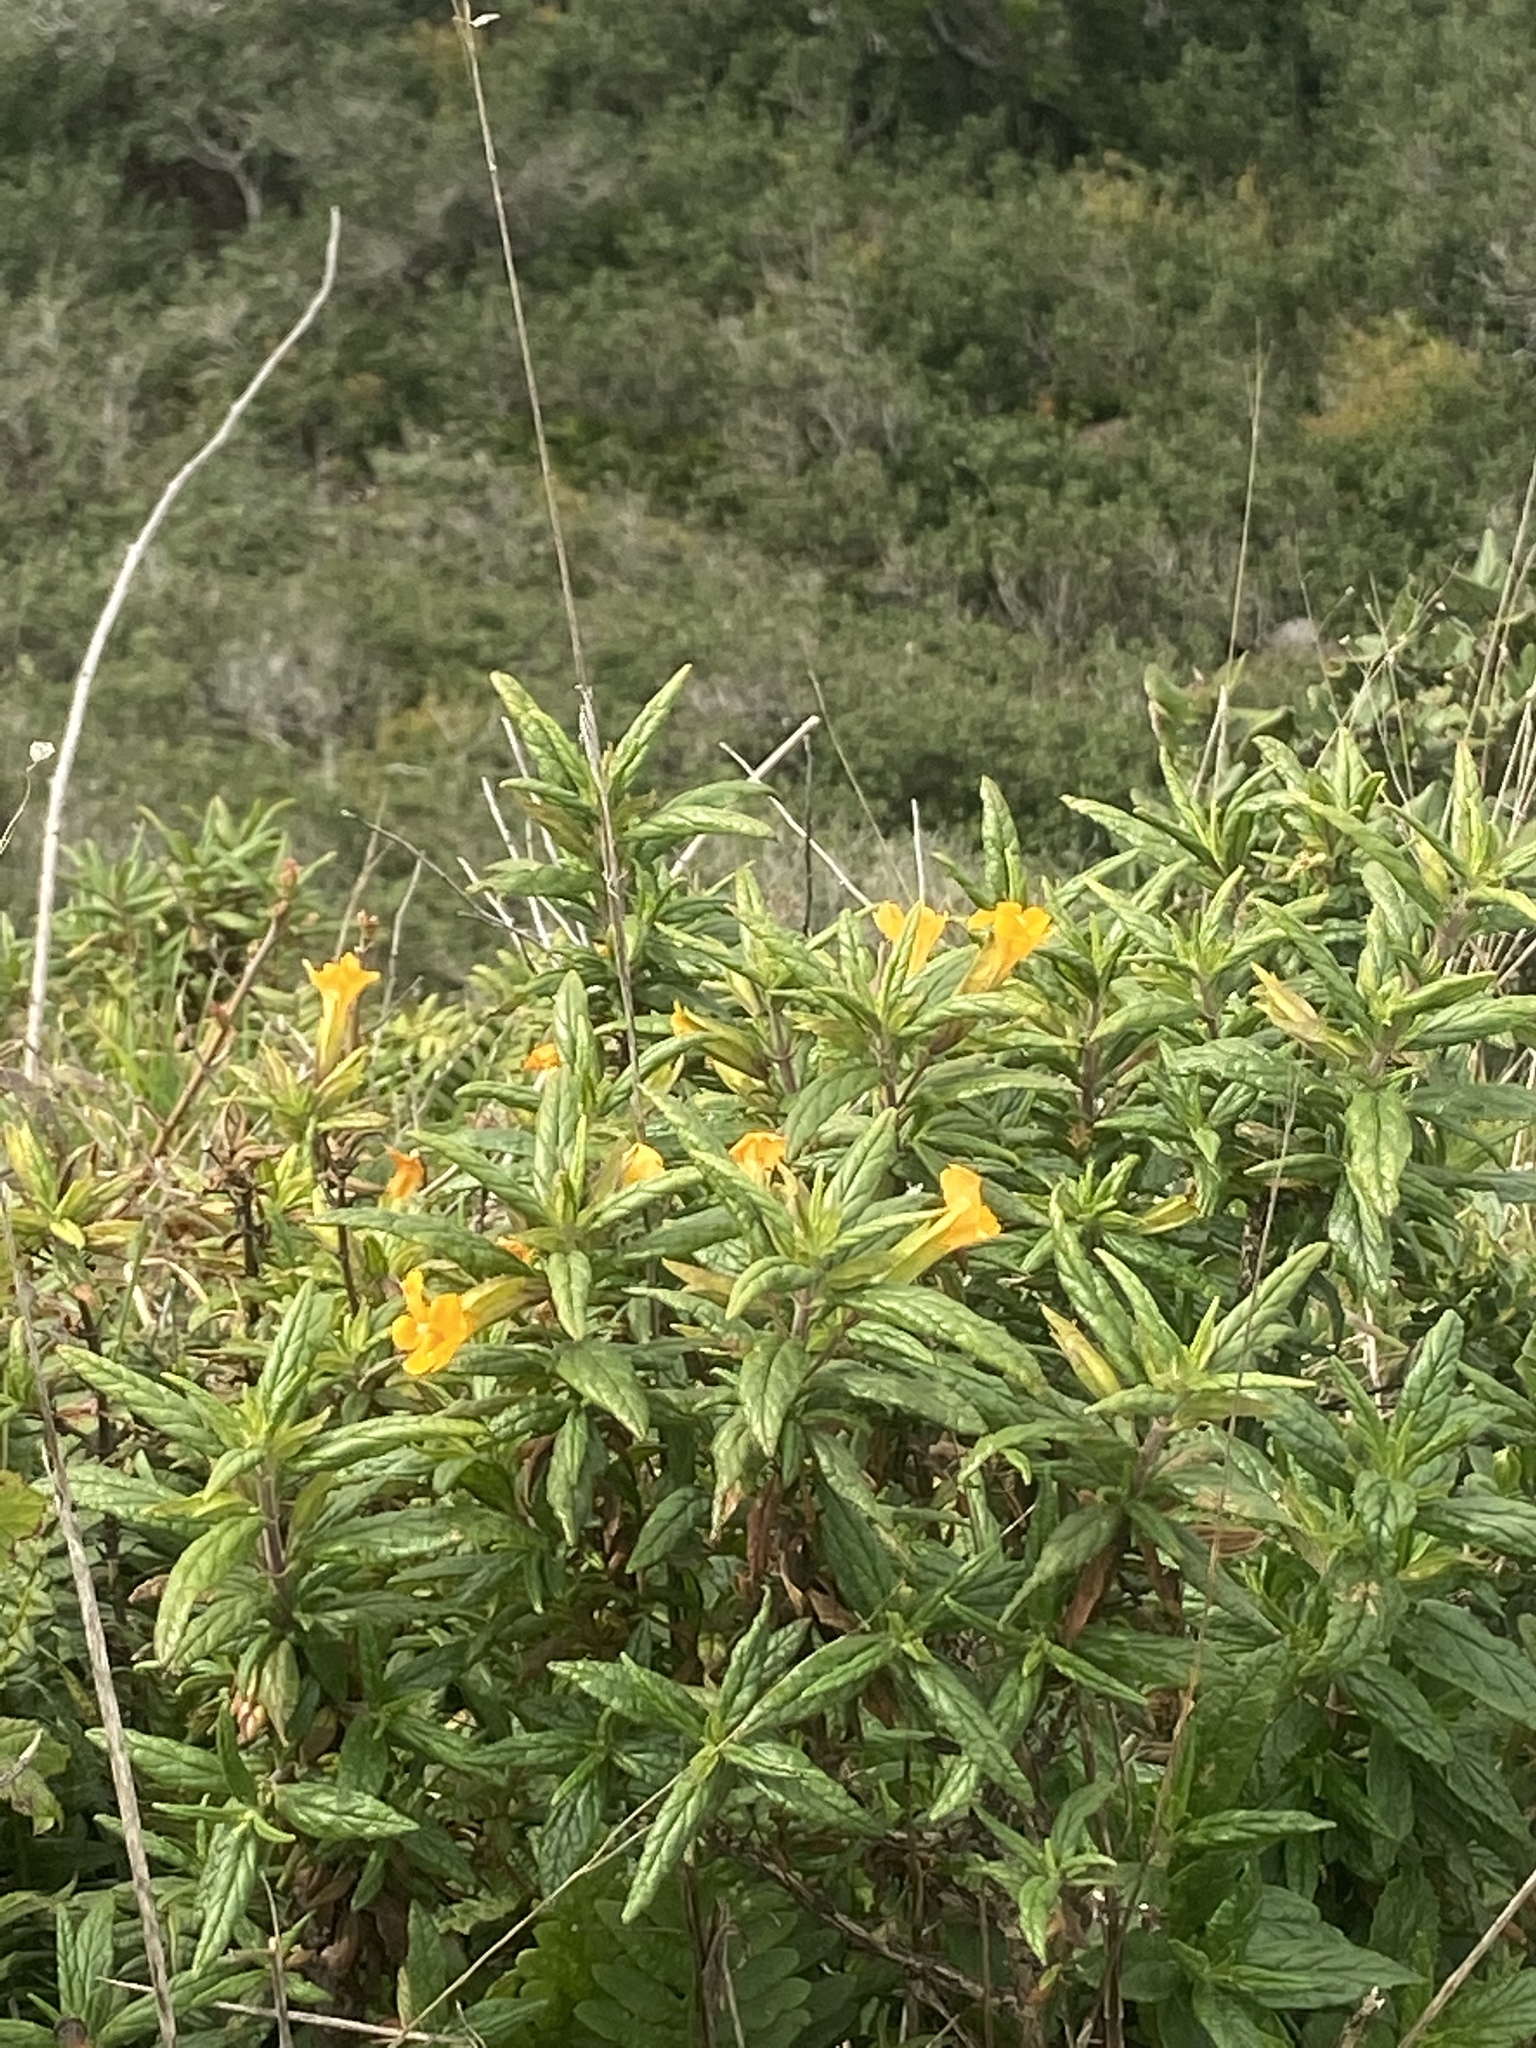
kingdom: Plantae
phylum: Tracheophyta
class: Magnoliopsida
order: Lamiales
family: Phrymaceae
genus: Diplacus
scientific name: Diplacus aurantiacus
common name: Bush monkey-flower
